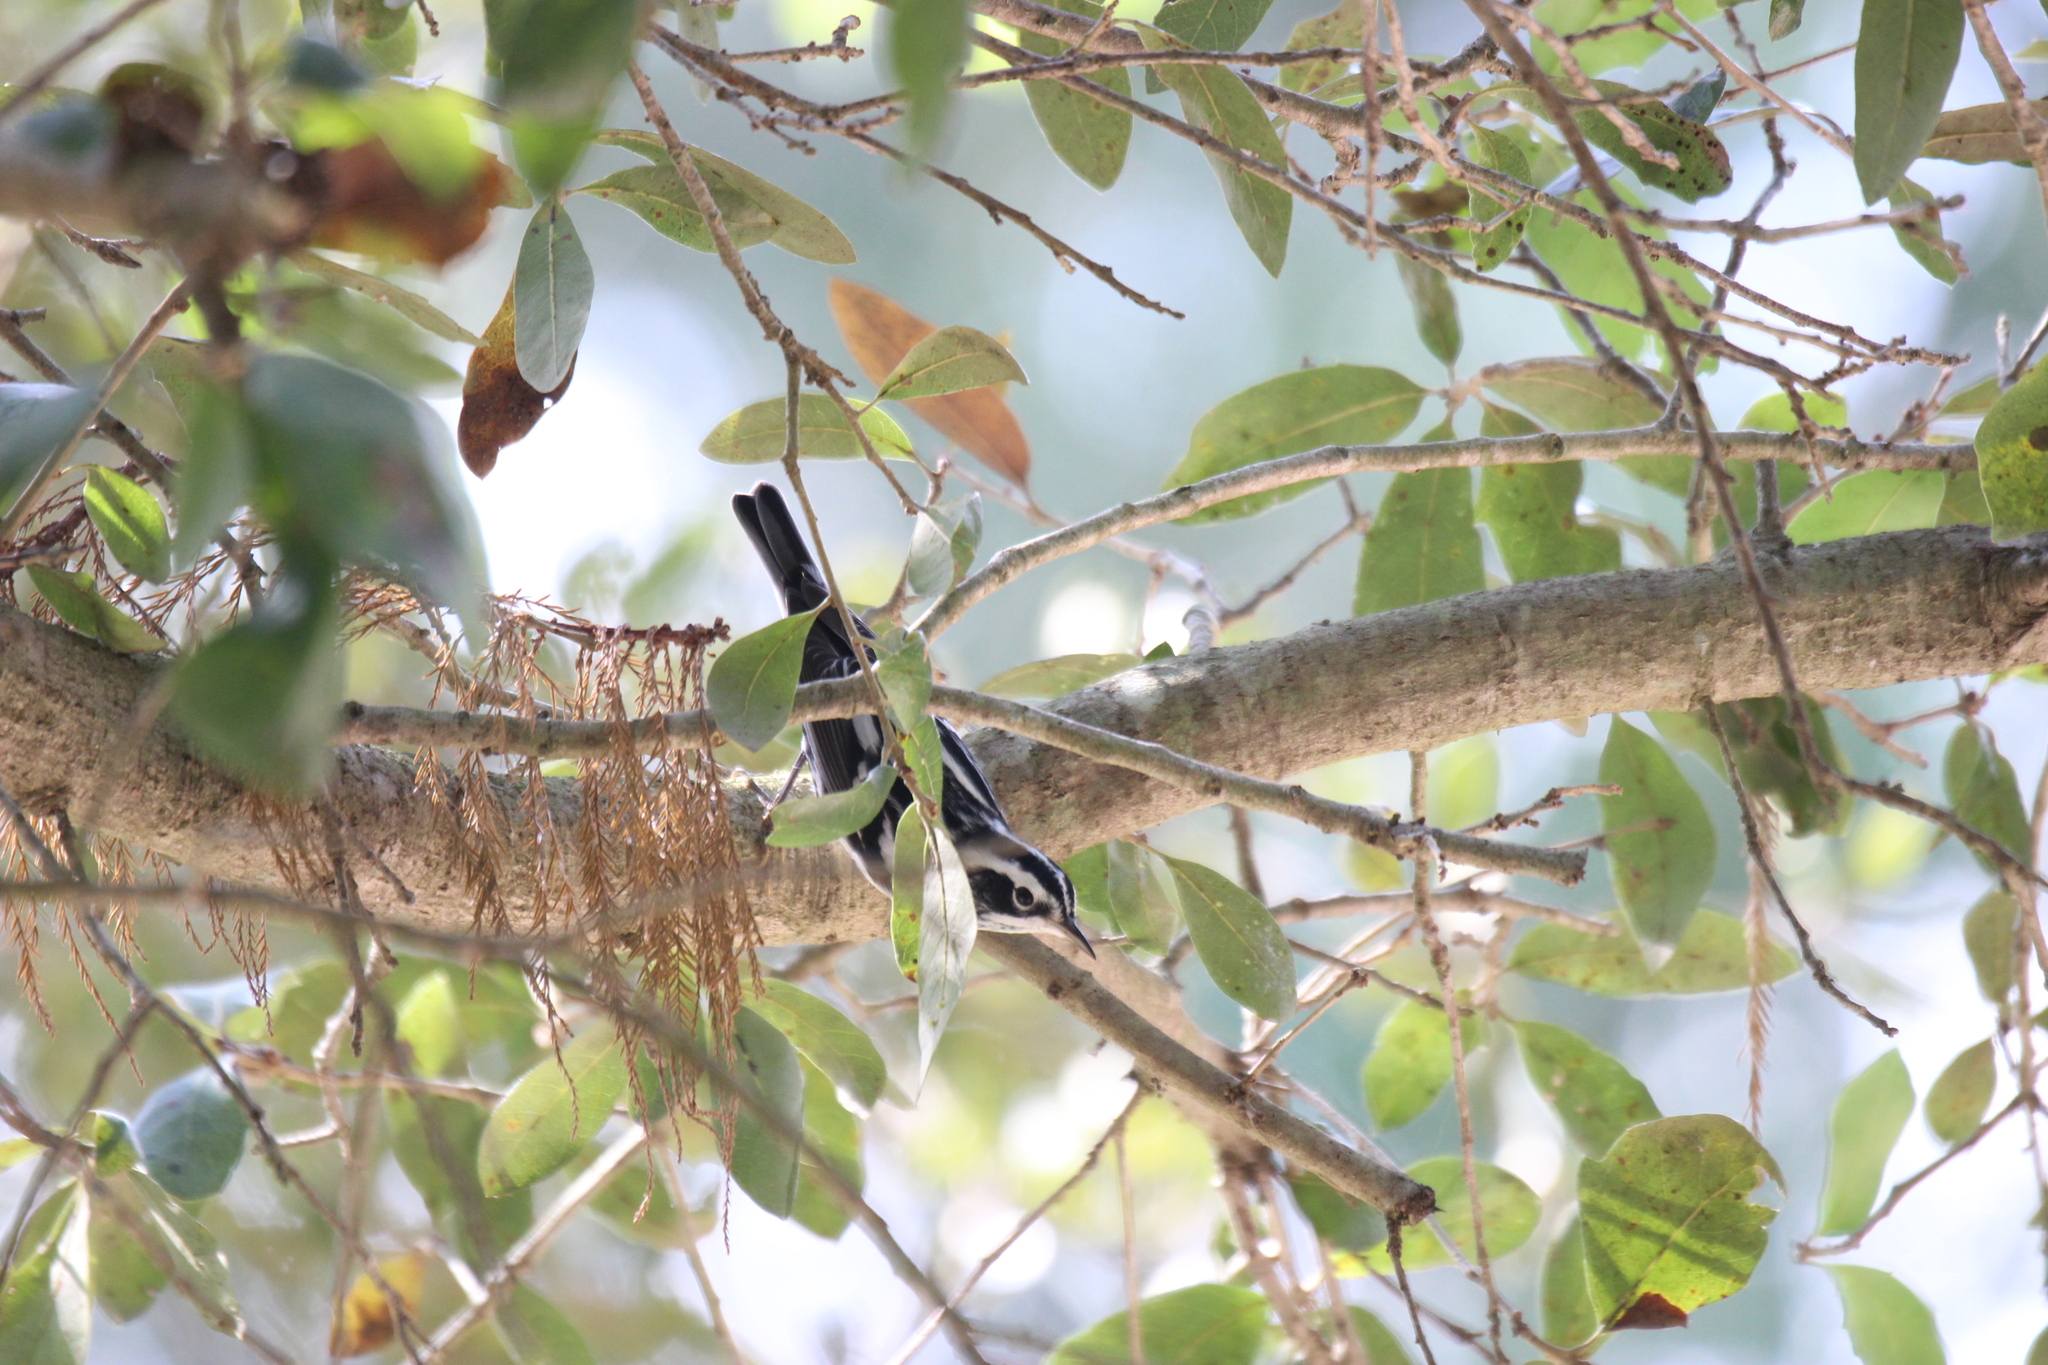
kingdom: Animalia
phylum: Chordata
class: Aves
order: Passeriformes
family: Parulidae
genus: Mniotilta
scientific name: Mniotilta varia
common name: Black-and-white warbler
